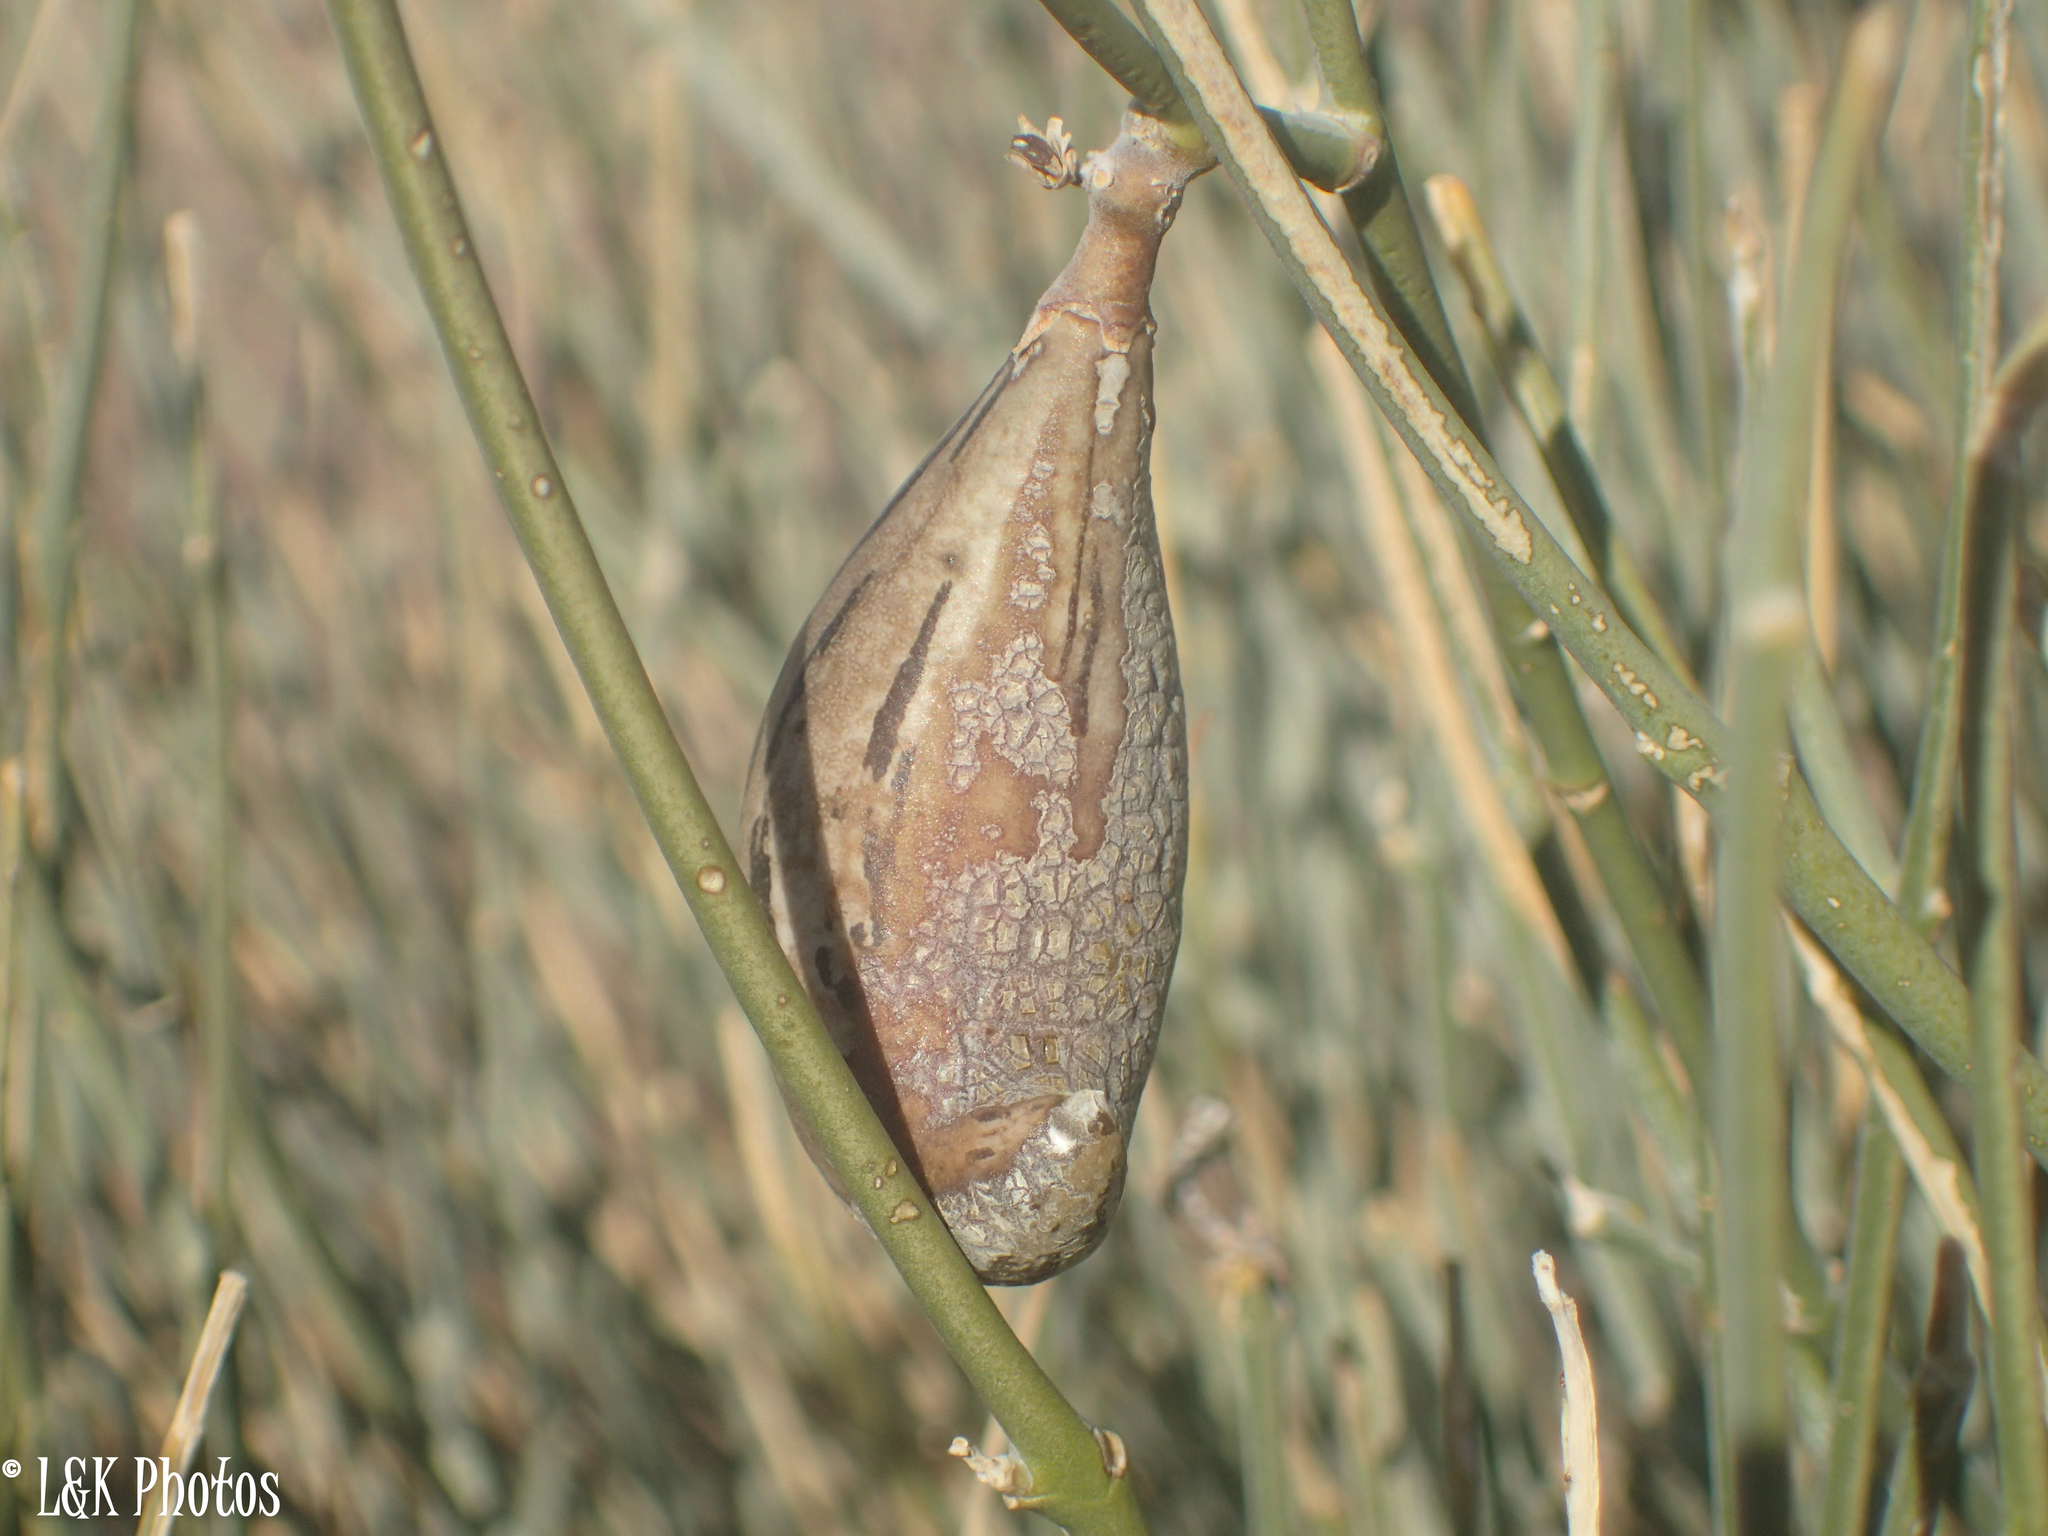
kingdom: Plantae
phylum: Tracheophyta
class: Magnoliopsida
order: Gentianales
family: Apocynaceae
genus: Orthanthera
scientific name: Orthanthera albida
